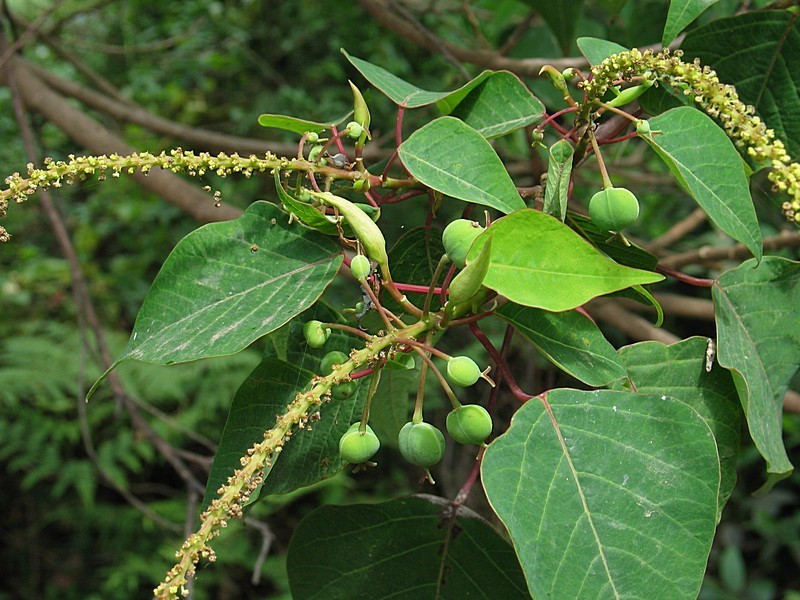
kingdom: Plantae
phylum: Tracheophyta
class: Magnoliopsida
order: Malpighiales
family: Euphorbiaceae
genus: Homalanthus
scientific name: Homalanthus populifolius
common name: Queensland poplar
